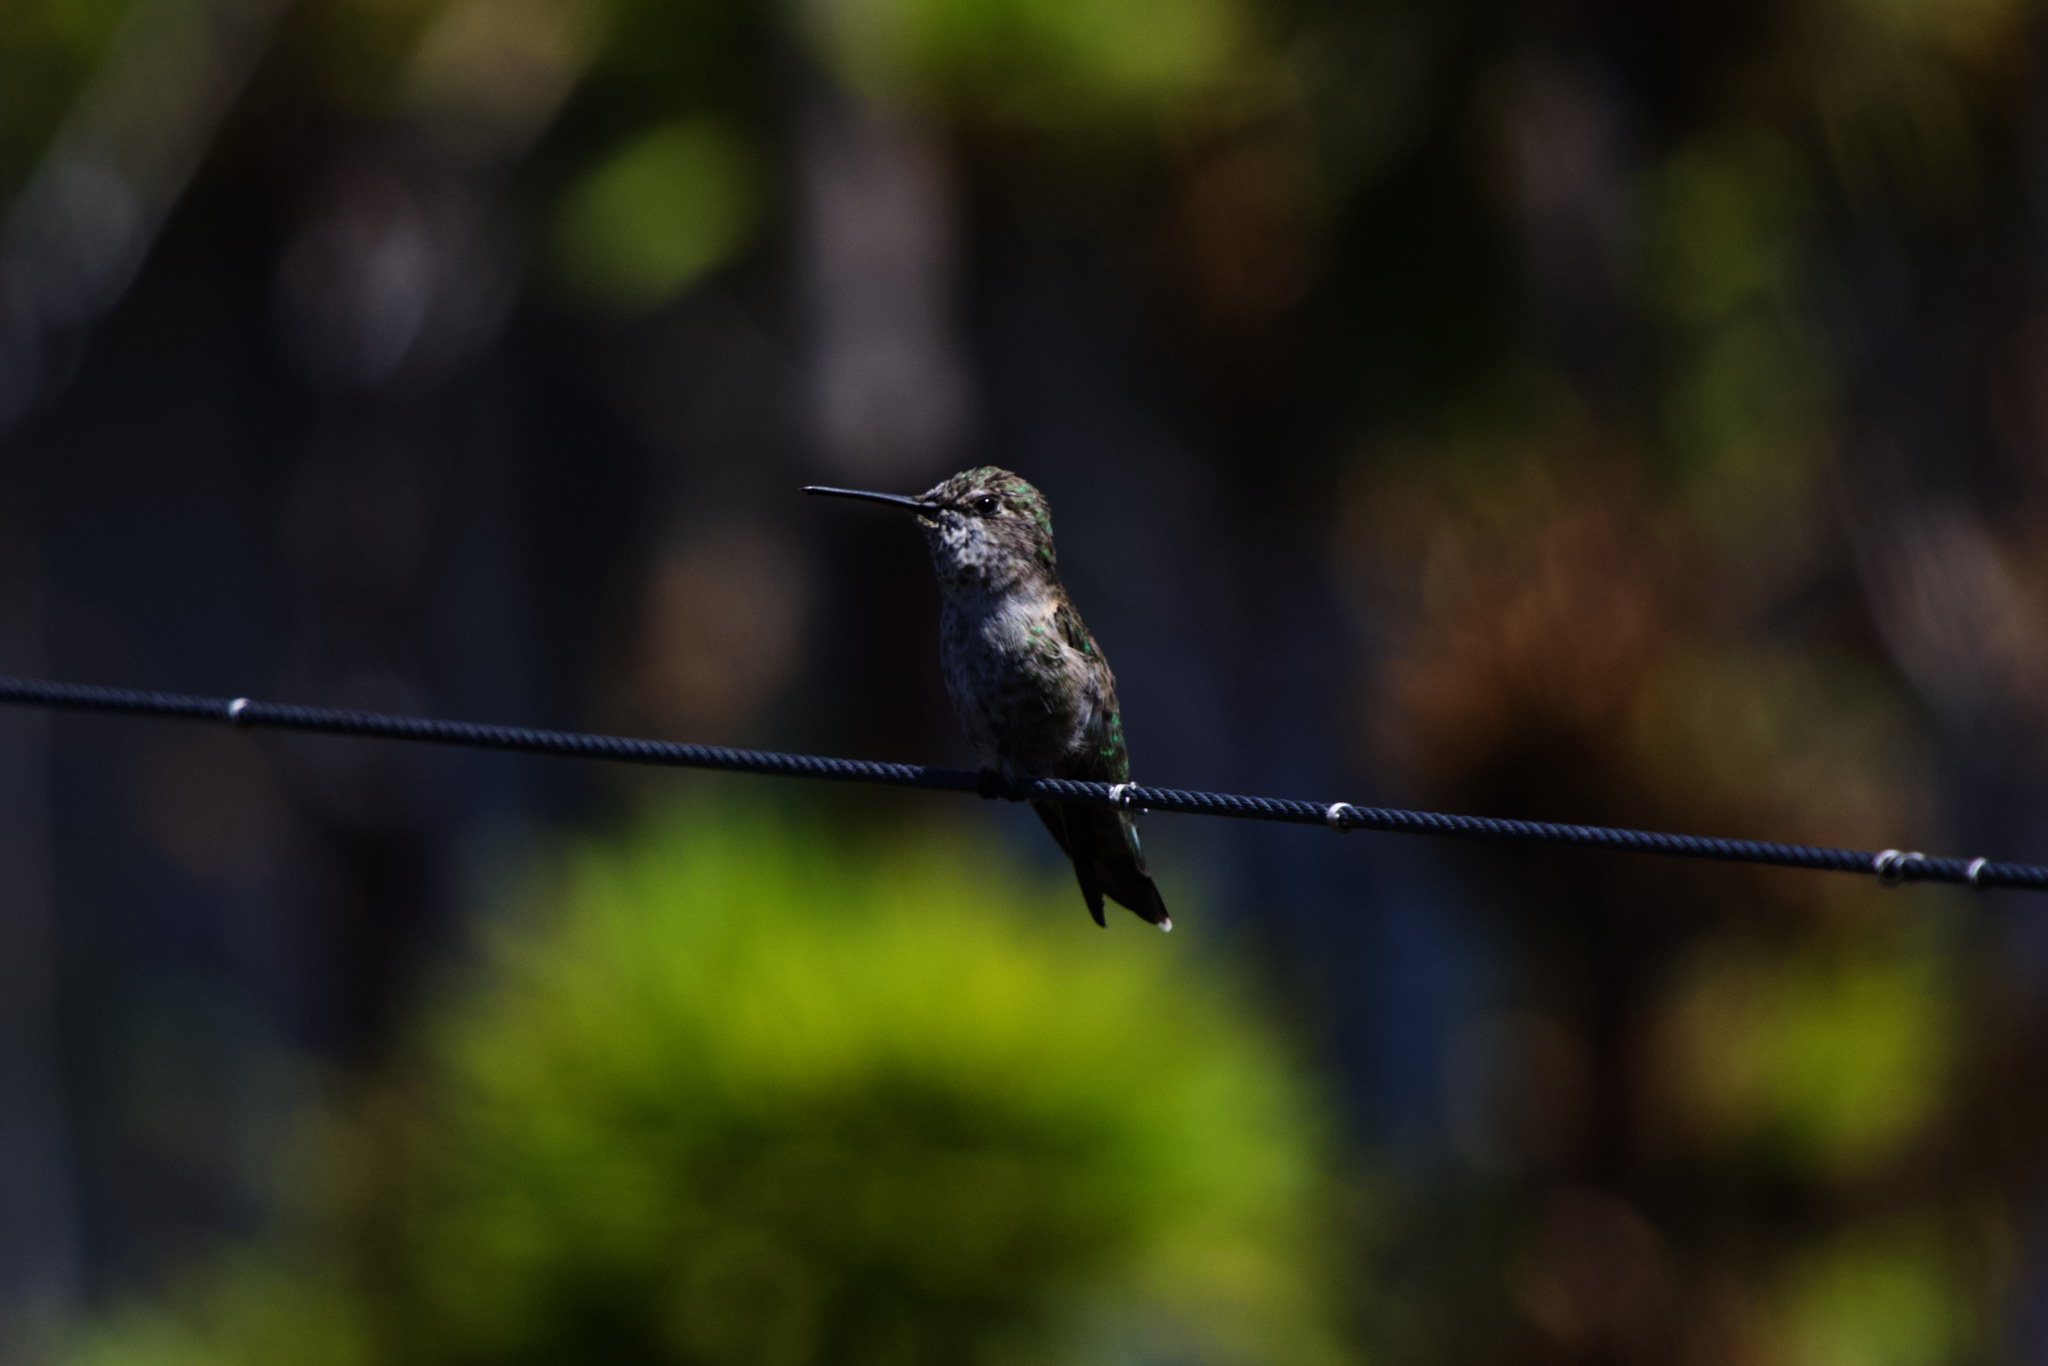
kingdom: Animalia
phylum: Chordata
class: Aves
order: Apodiformes
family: Trochilidae
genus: Calypte
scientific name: Calypte anna
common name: Anna's hummingbird
